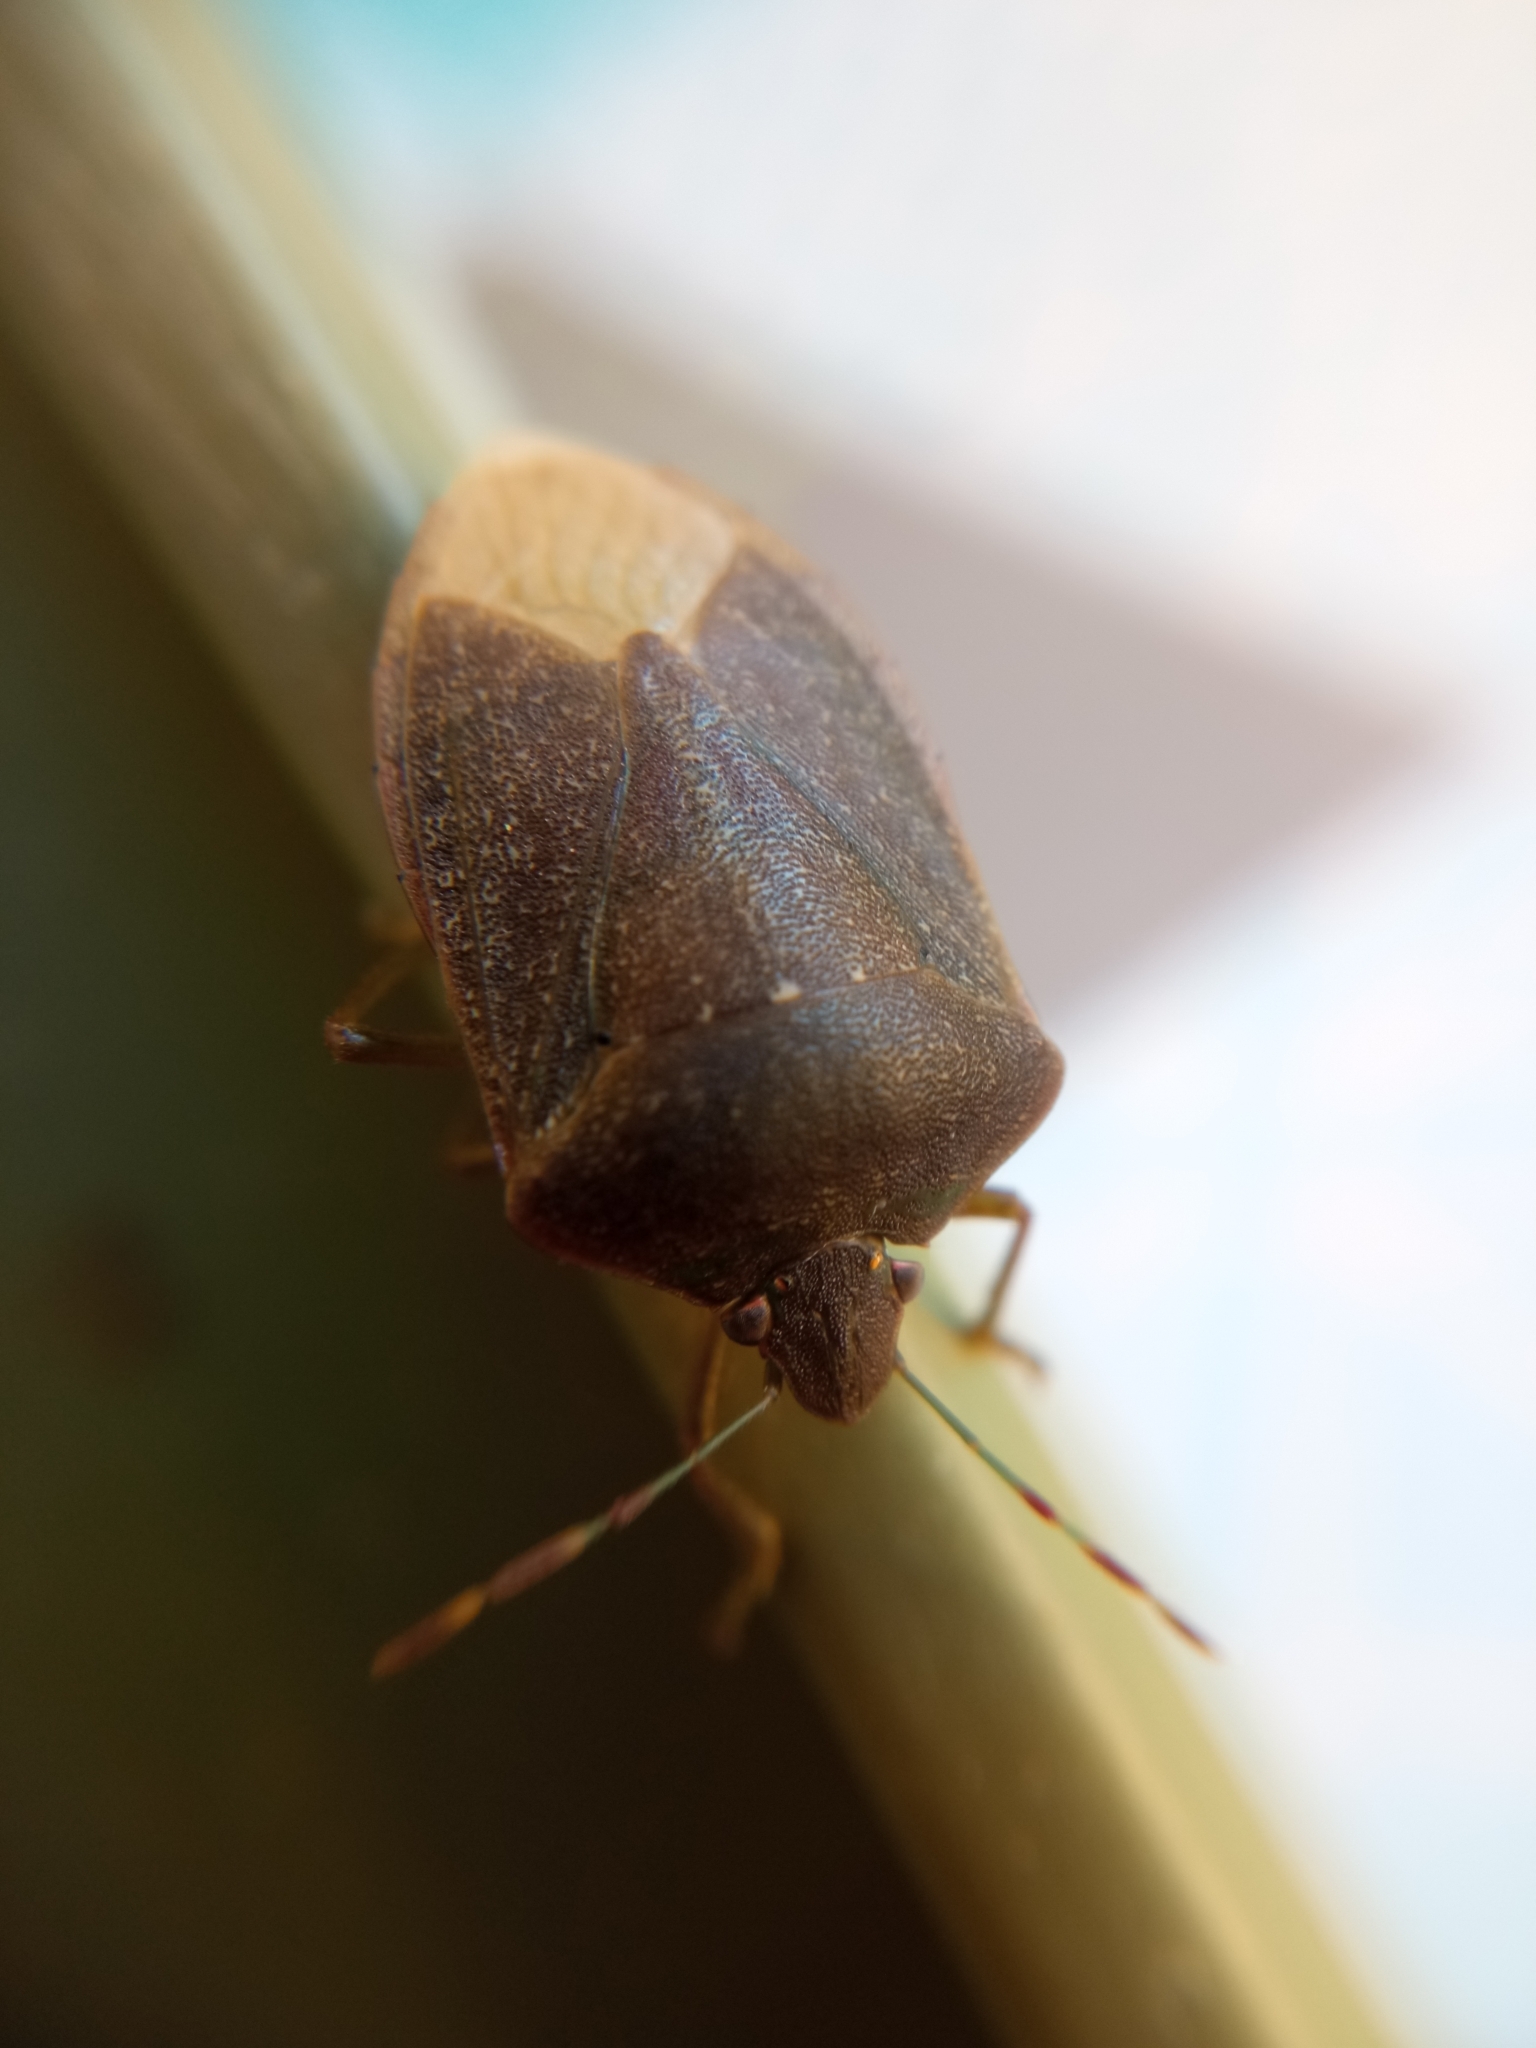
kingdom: Animalia
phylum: Arthropoda
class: Insecta
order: Hemiptera
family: Pentatomidae
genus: Nezara
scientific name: Nezara viridula
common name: Southern green stink bug
